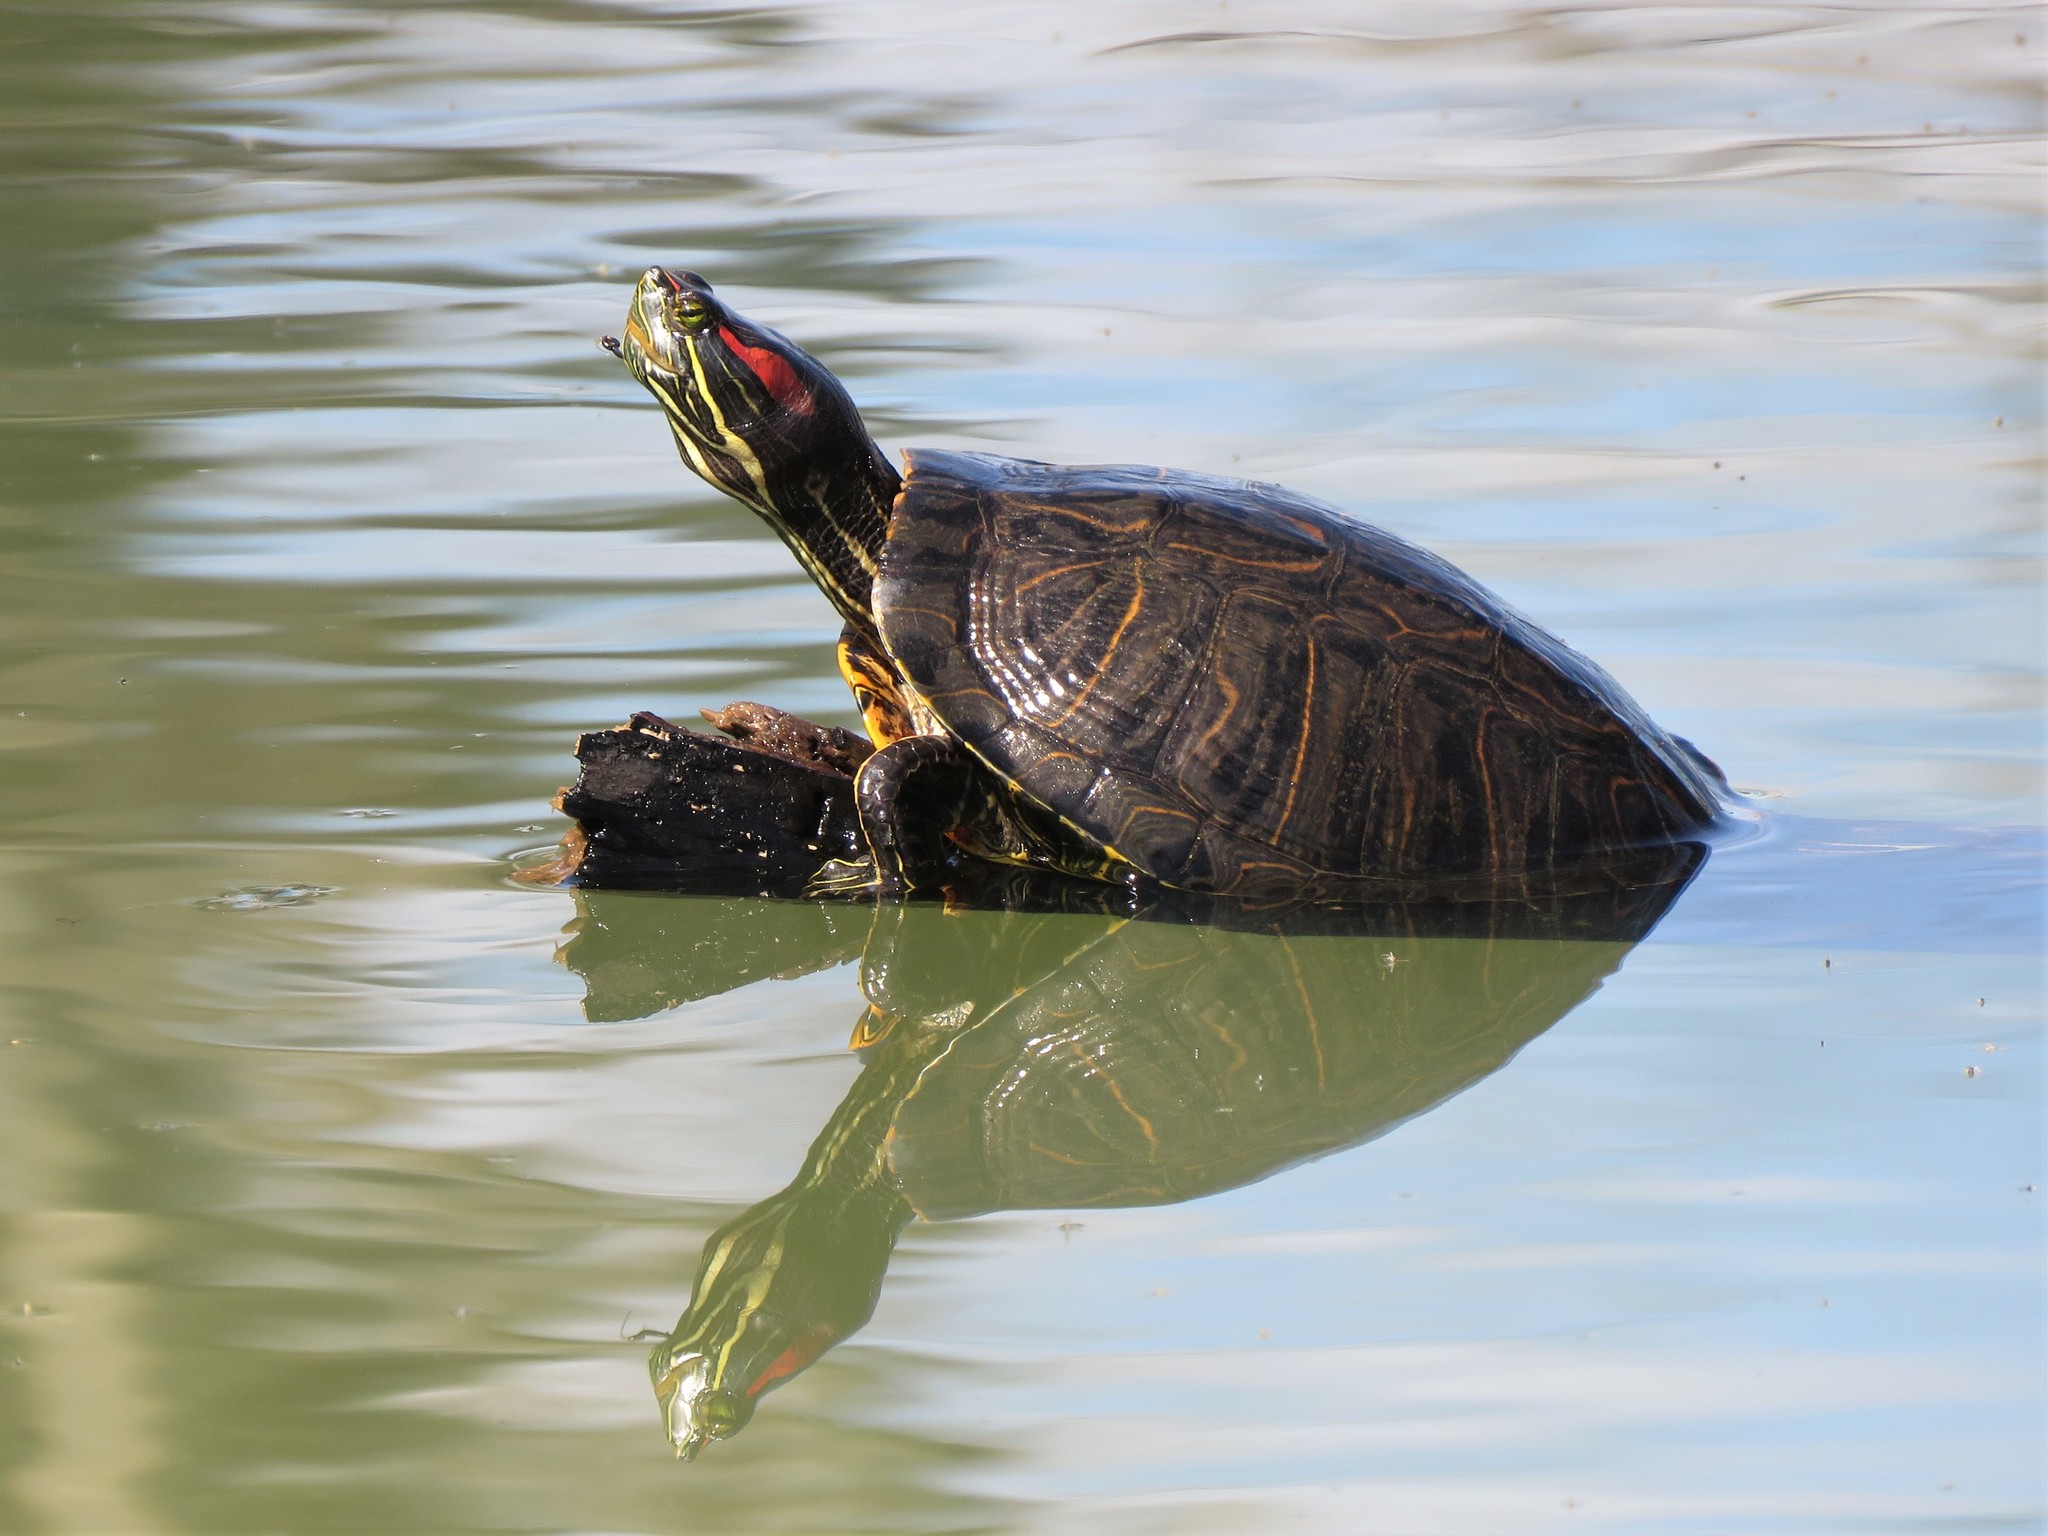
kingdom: Animalia
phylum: Chordata
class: Testudines
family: Emydidae
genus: Trachemys
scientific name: Trachemys scripta
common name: Slider
